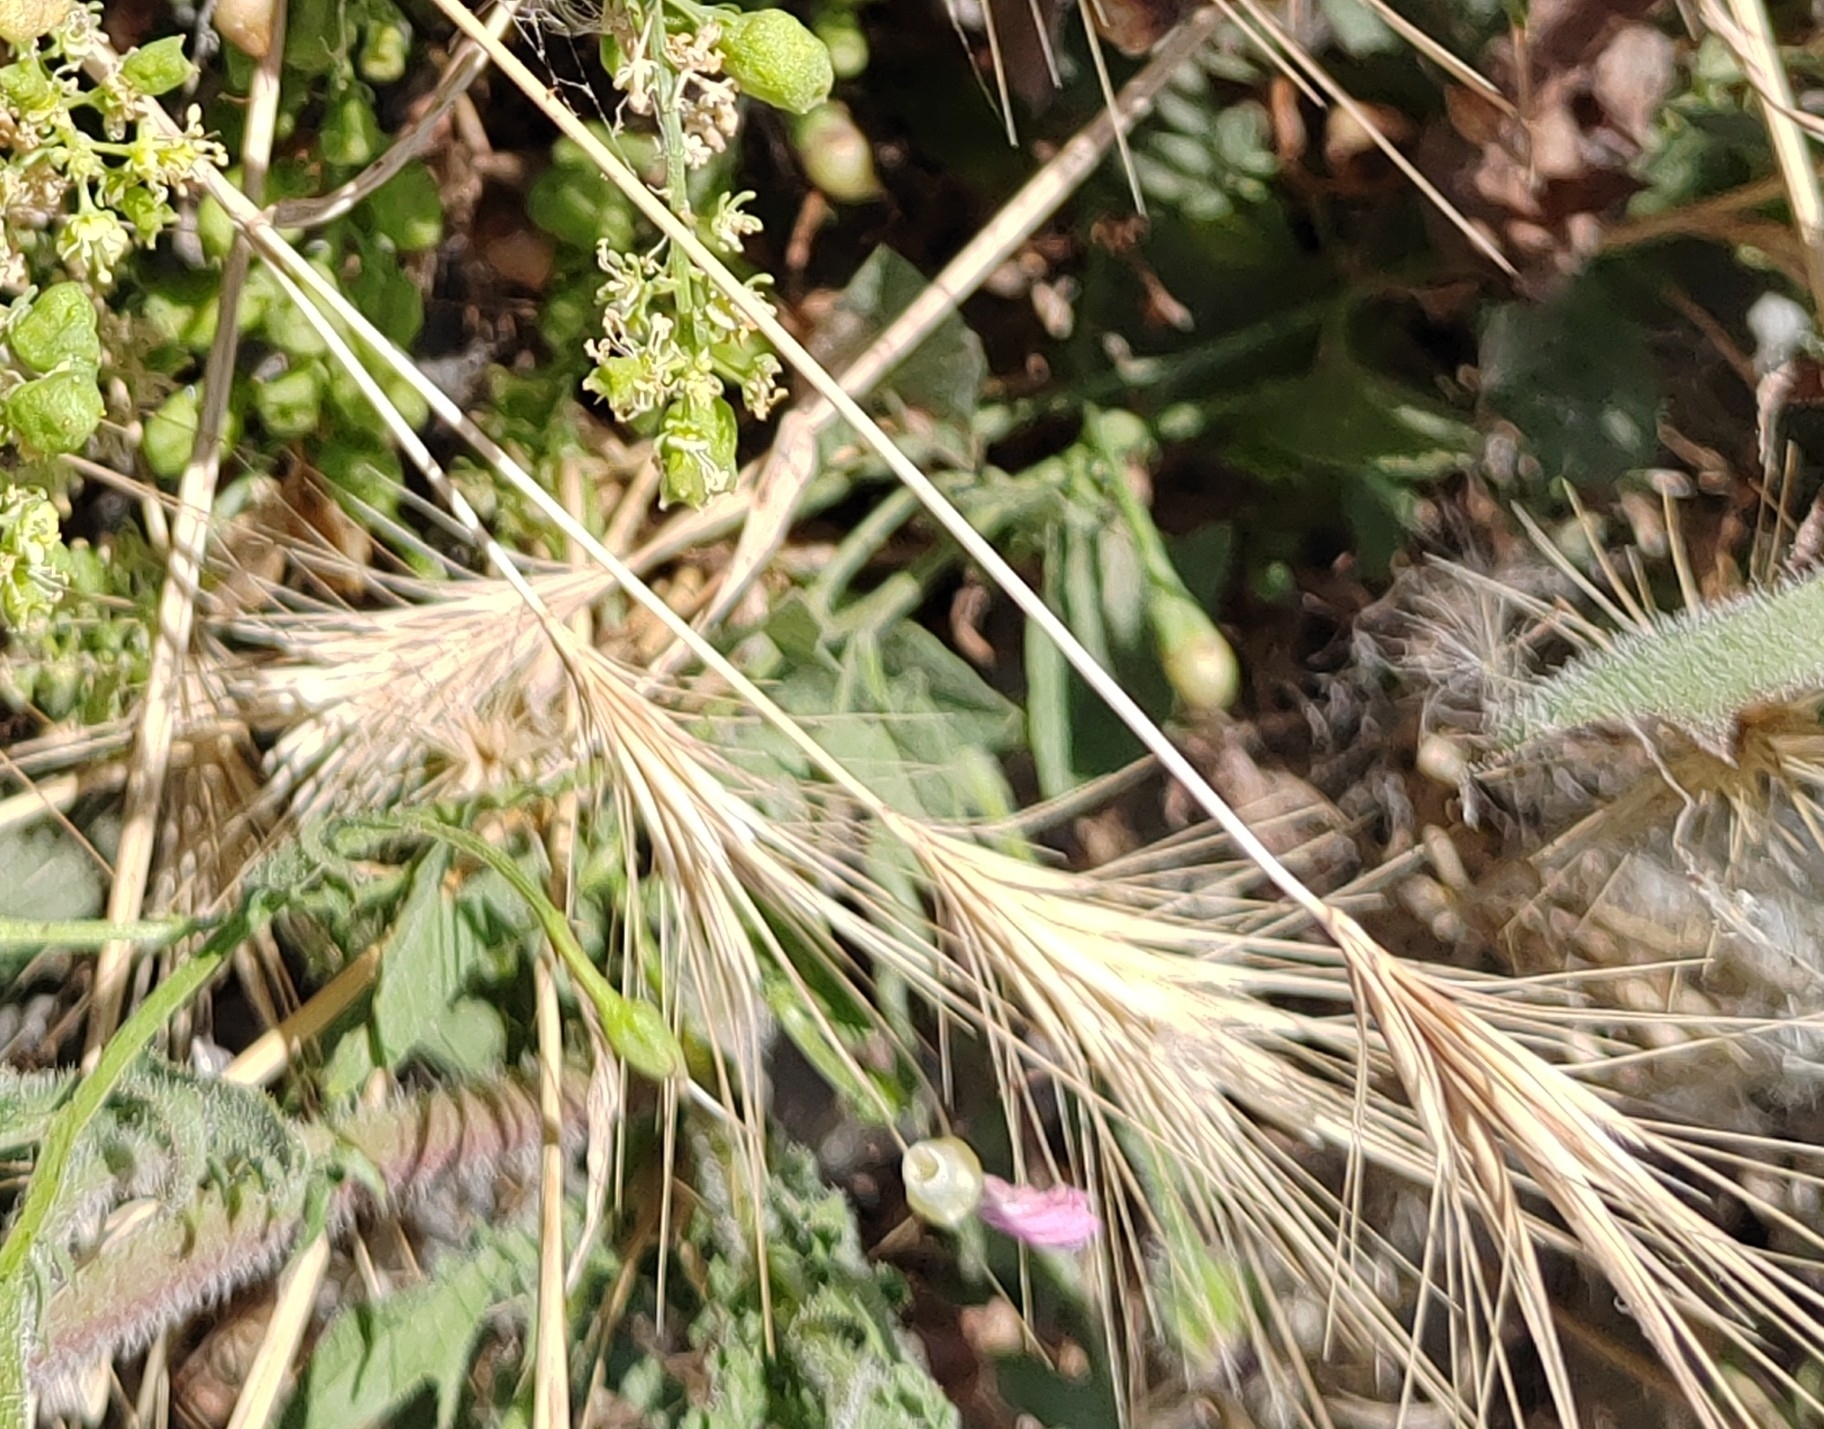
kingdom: Plantae
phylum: Tracheophyta
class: Liliopsida
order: Poales
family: Poaceae
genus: Hordeum
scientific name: Hordeum murinum
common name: Wall barley
